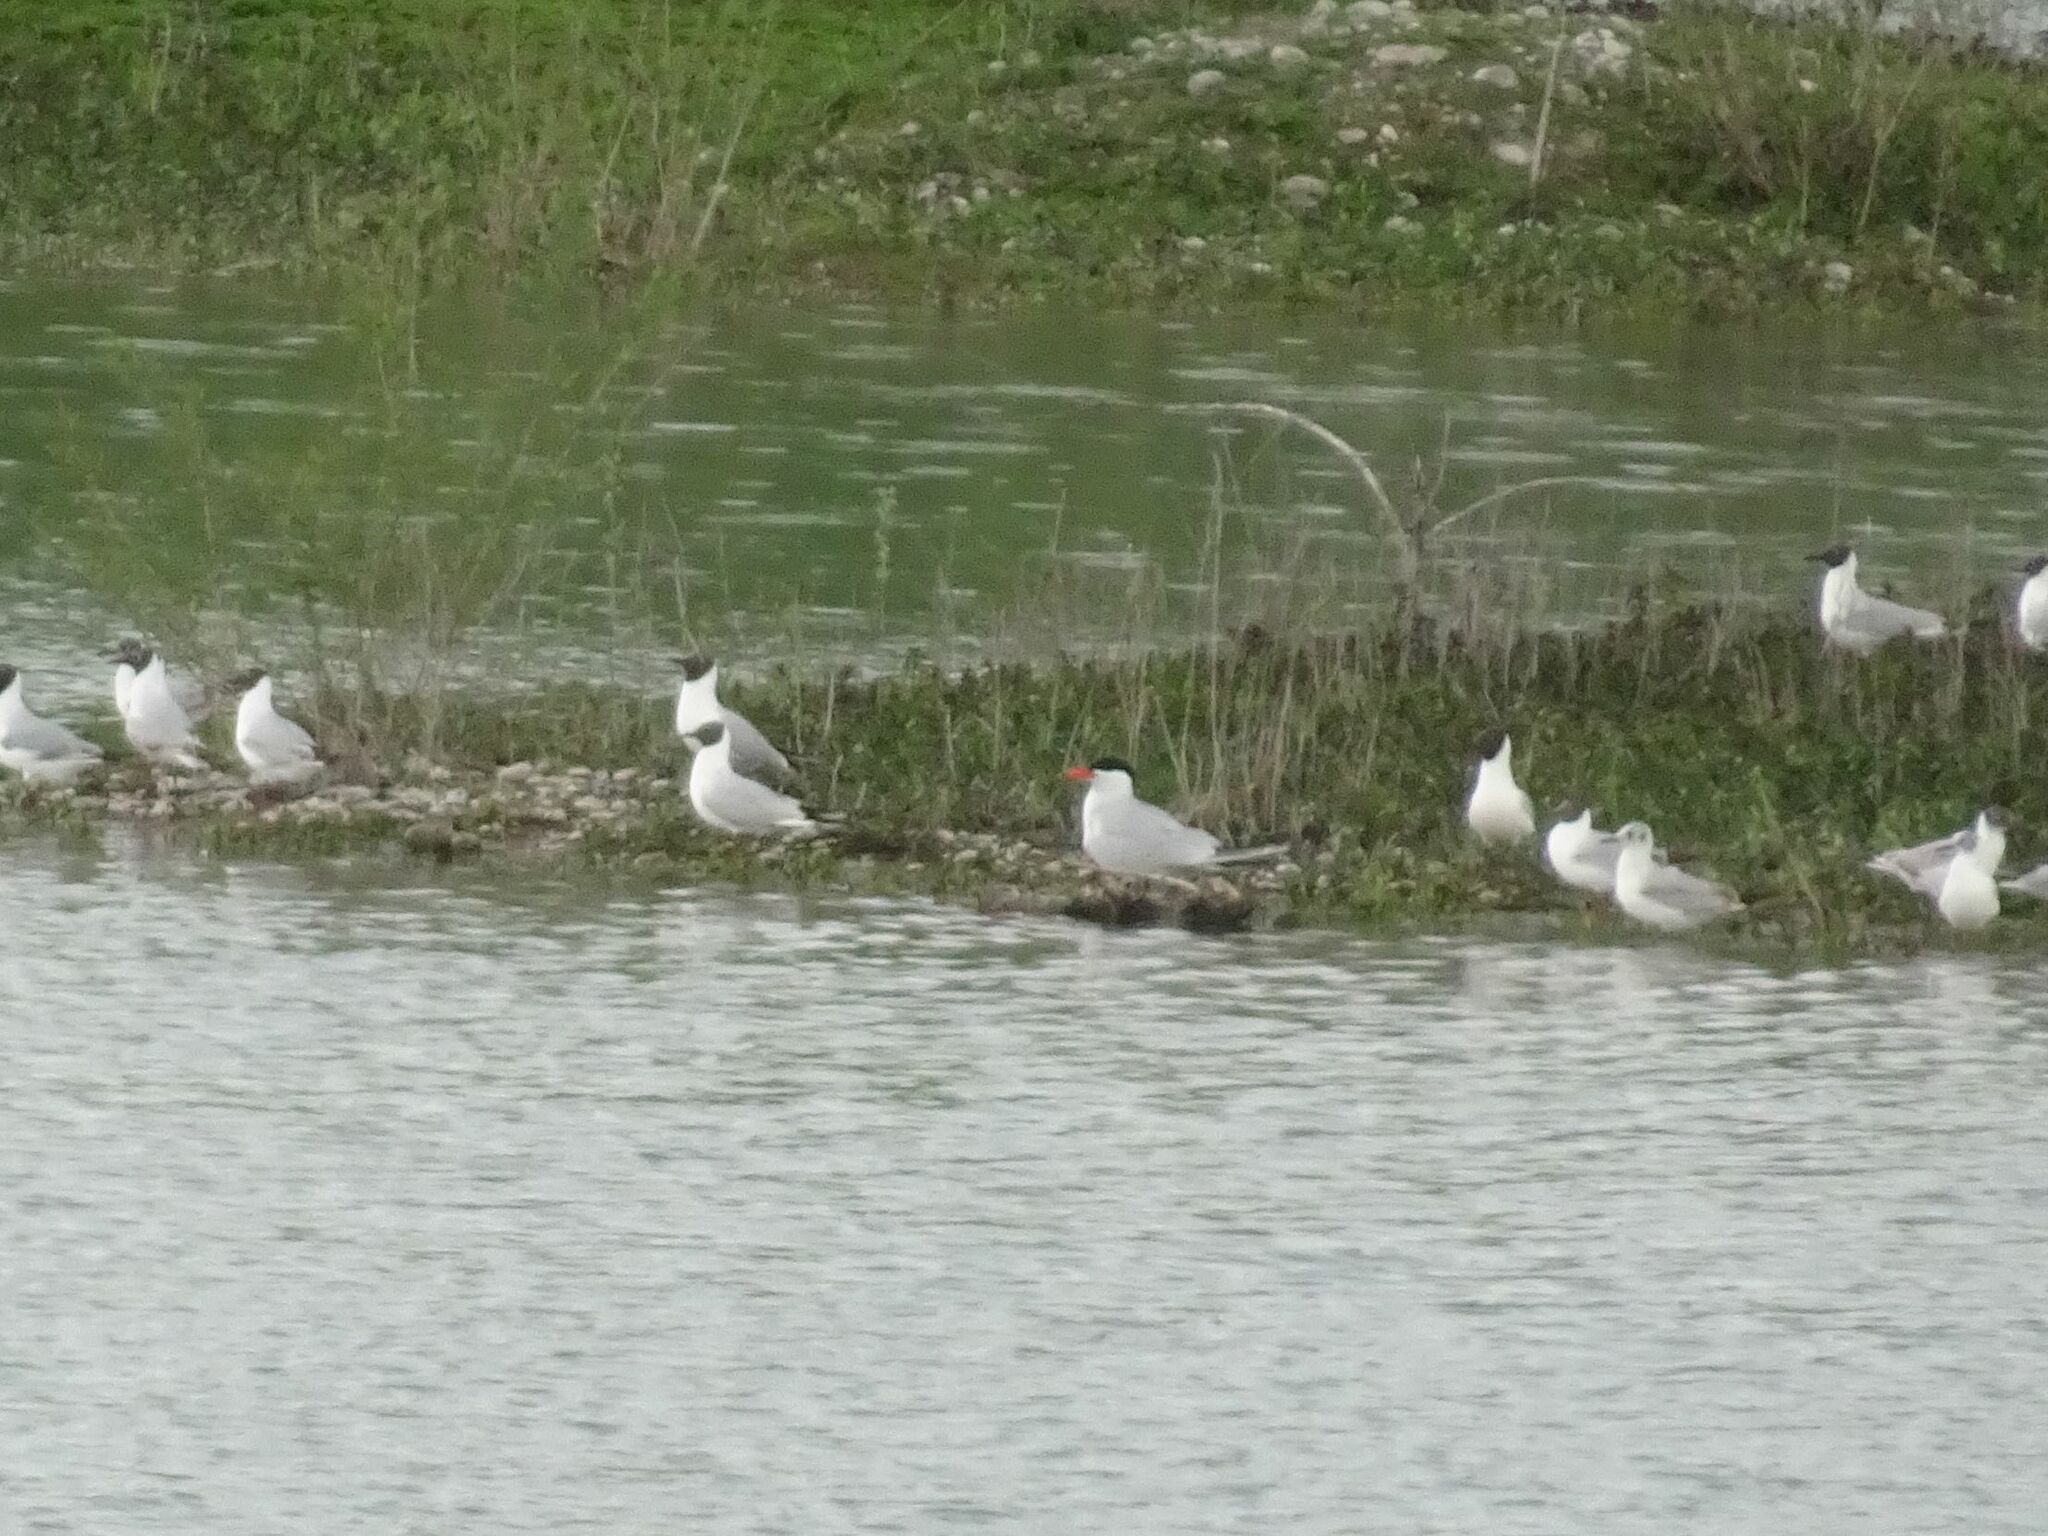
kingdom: Animalia
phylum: Chordata
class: Aves
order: Charadriiformes
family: Laridae
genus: Hydroprogne
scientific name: Hydroprogne caspia
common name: Caspian tern
